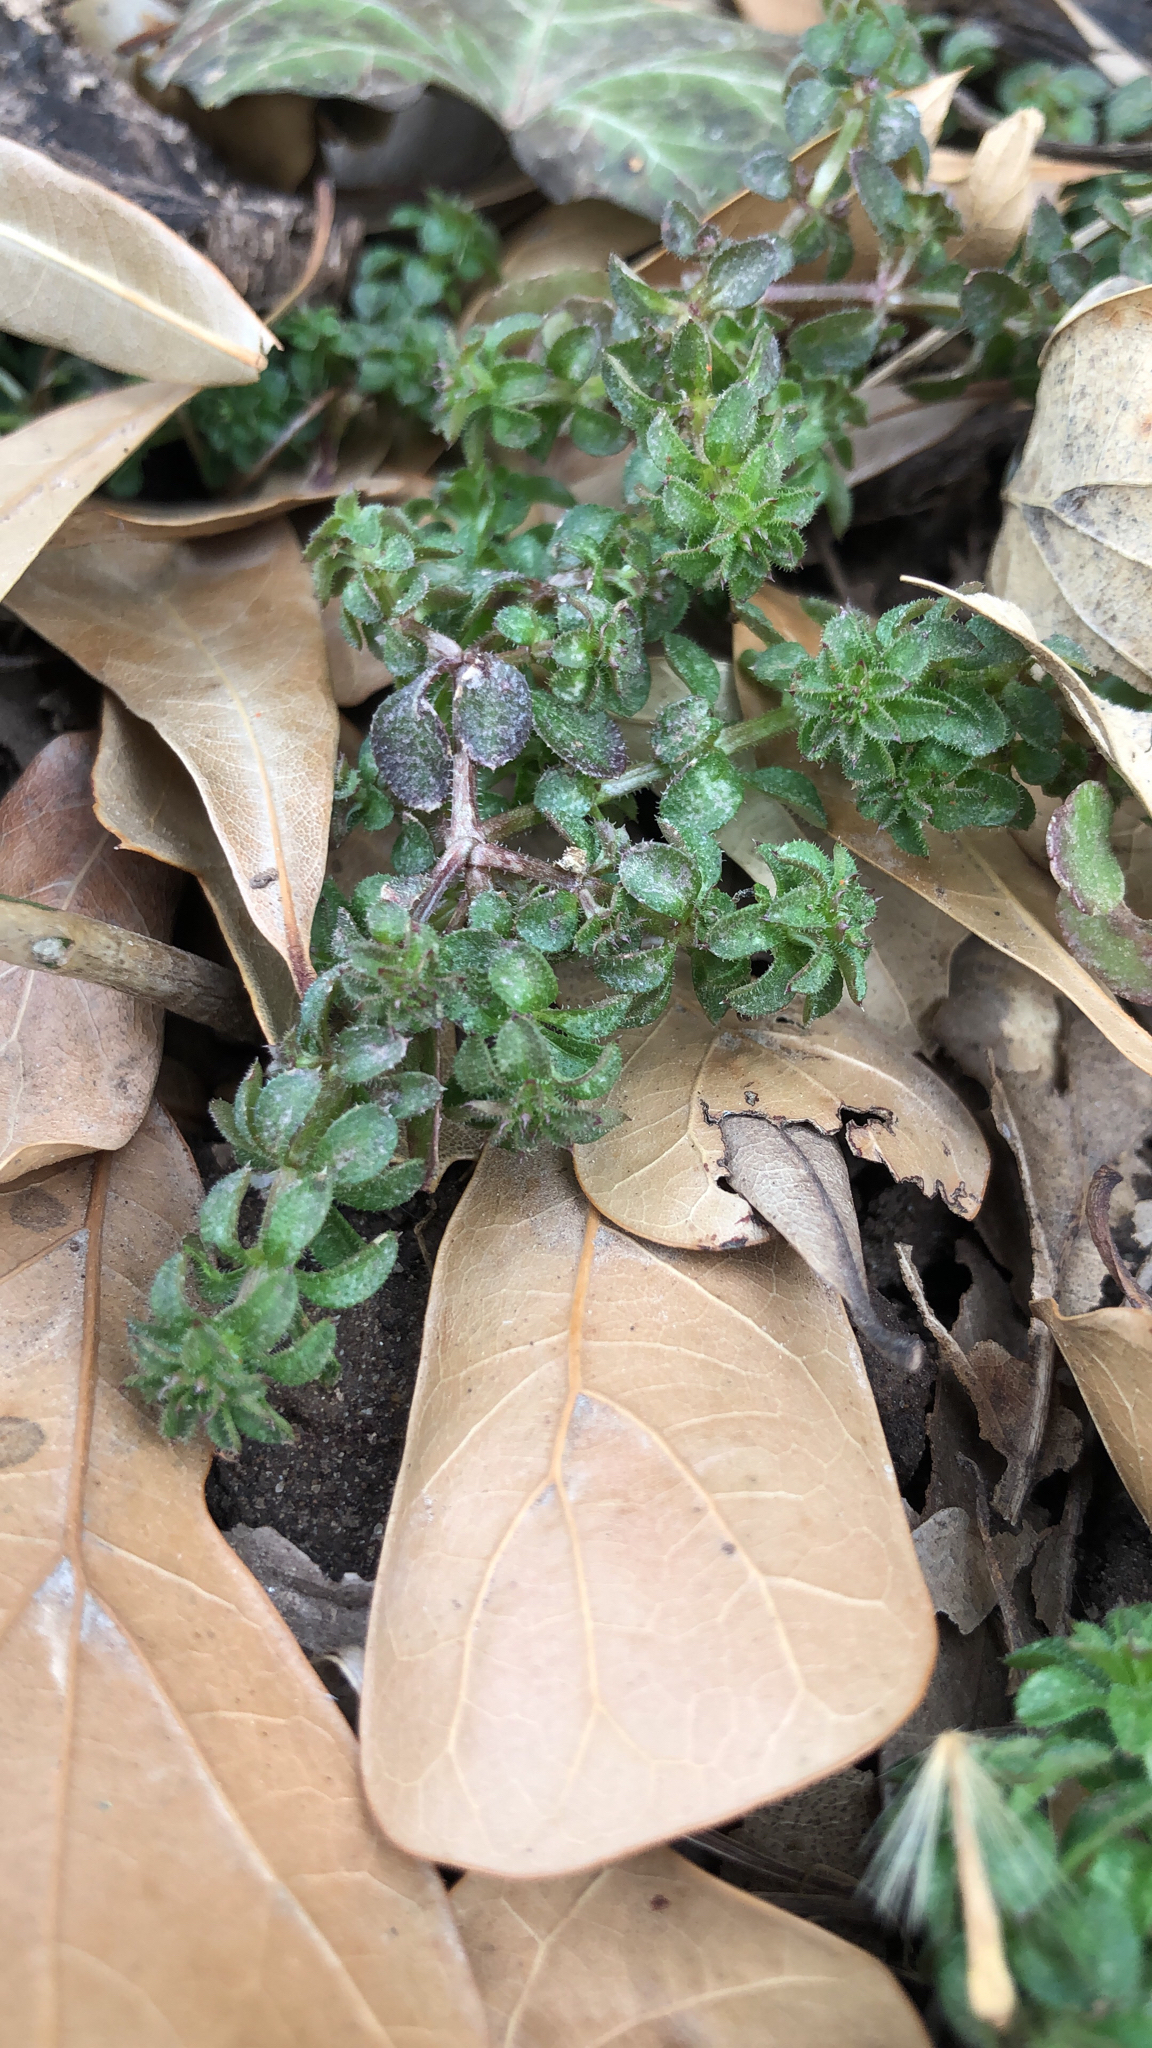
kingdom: Plantae
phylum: Tracheophyta
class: Magnoliopsida
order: Gentianales
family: Rubiaceae
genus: Sherardia
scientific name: Sherardia arvensis
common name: Field madder
